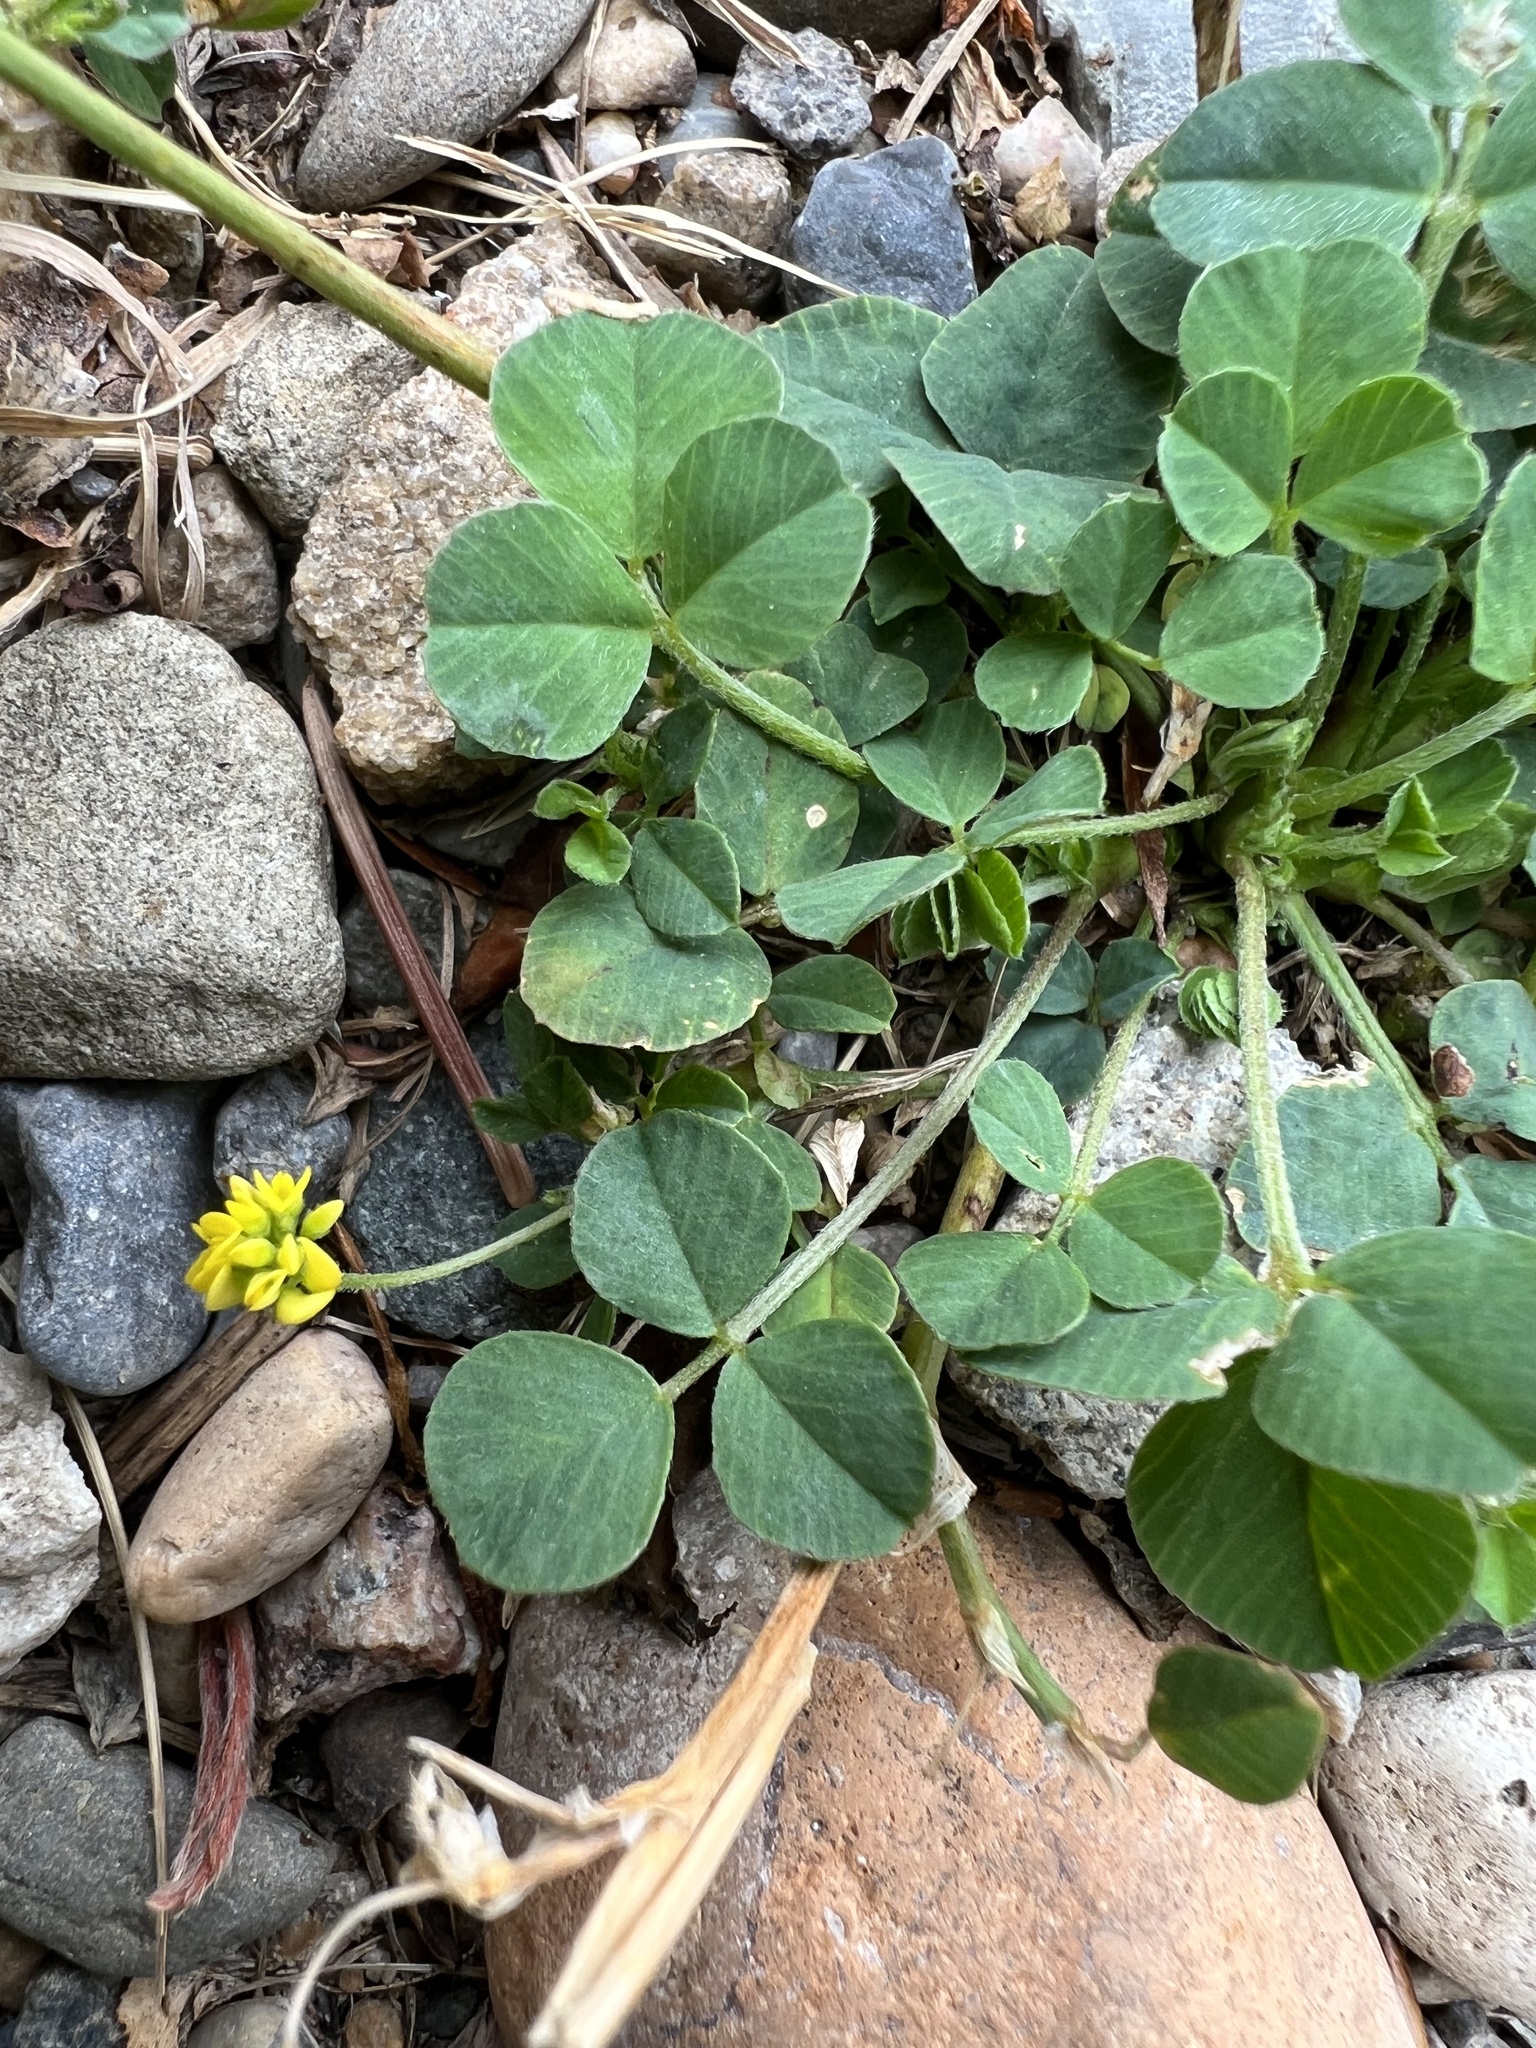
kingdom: Plantae
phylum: Tracheophyta
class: Magnoliopsida
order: Fabales
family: Fabaceae
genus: Medicago
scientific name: Medicago lupulina
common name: Black medick
